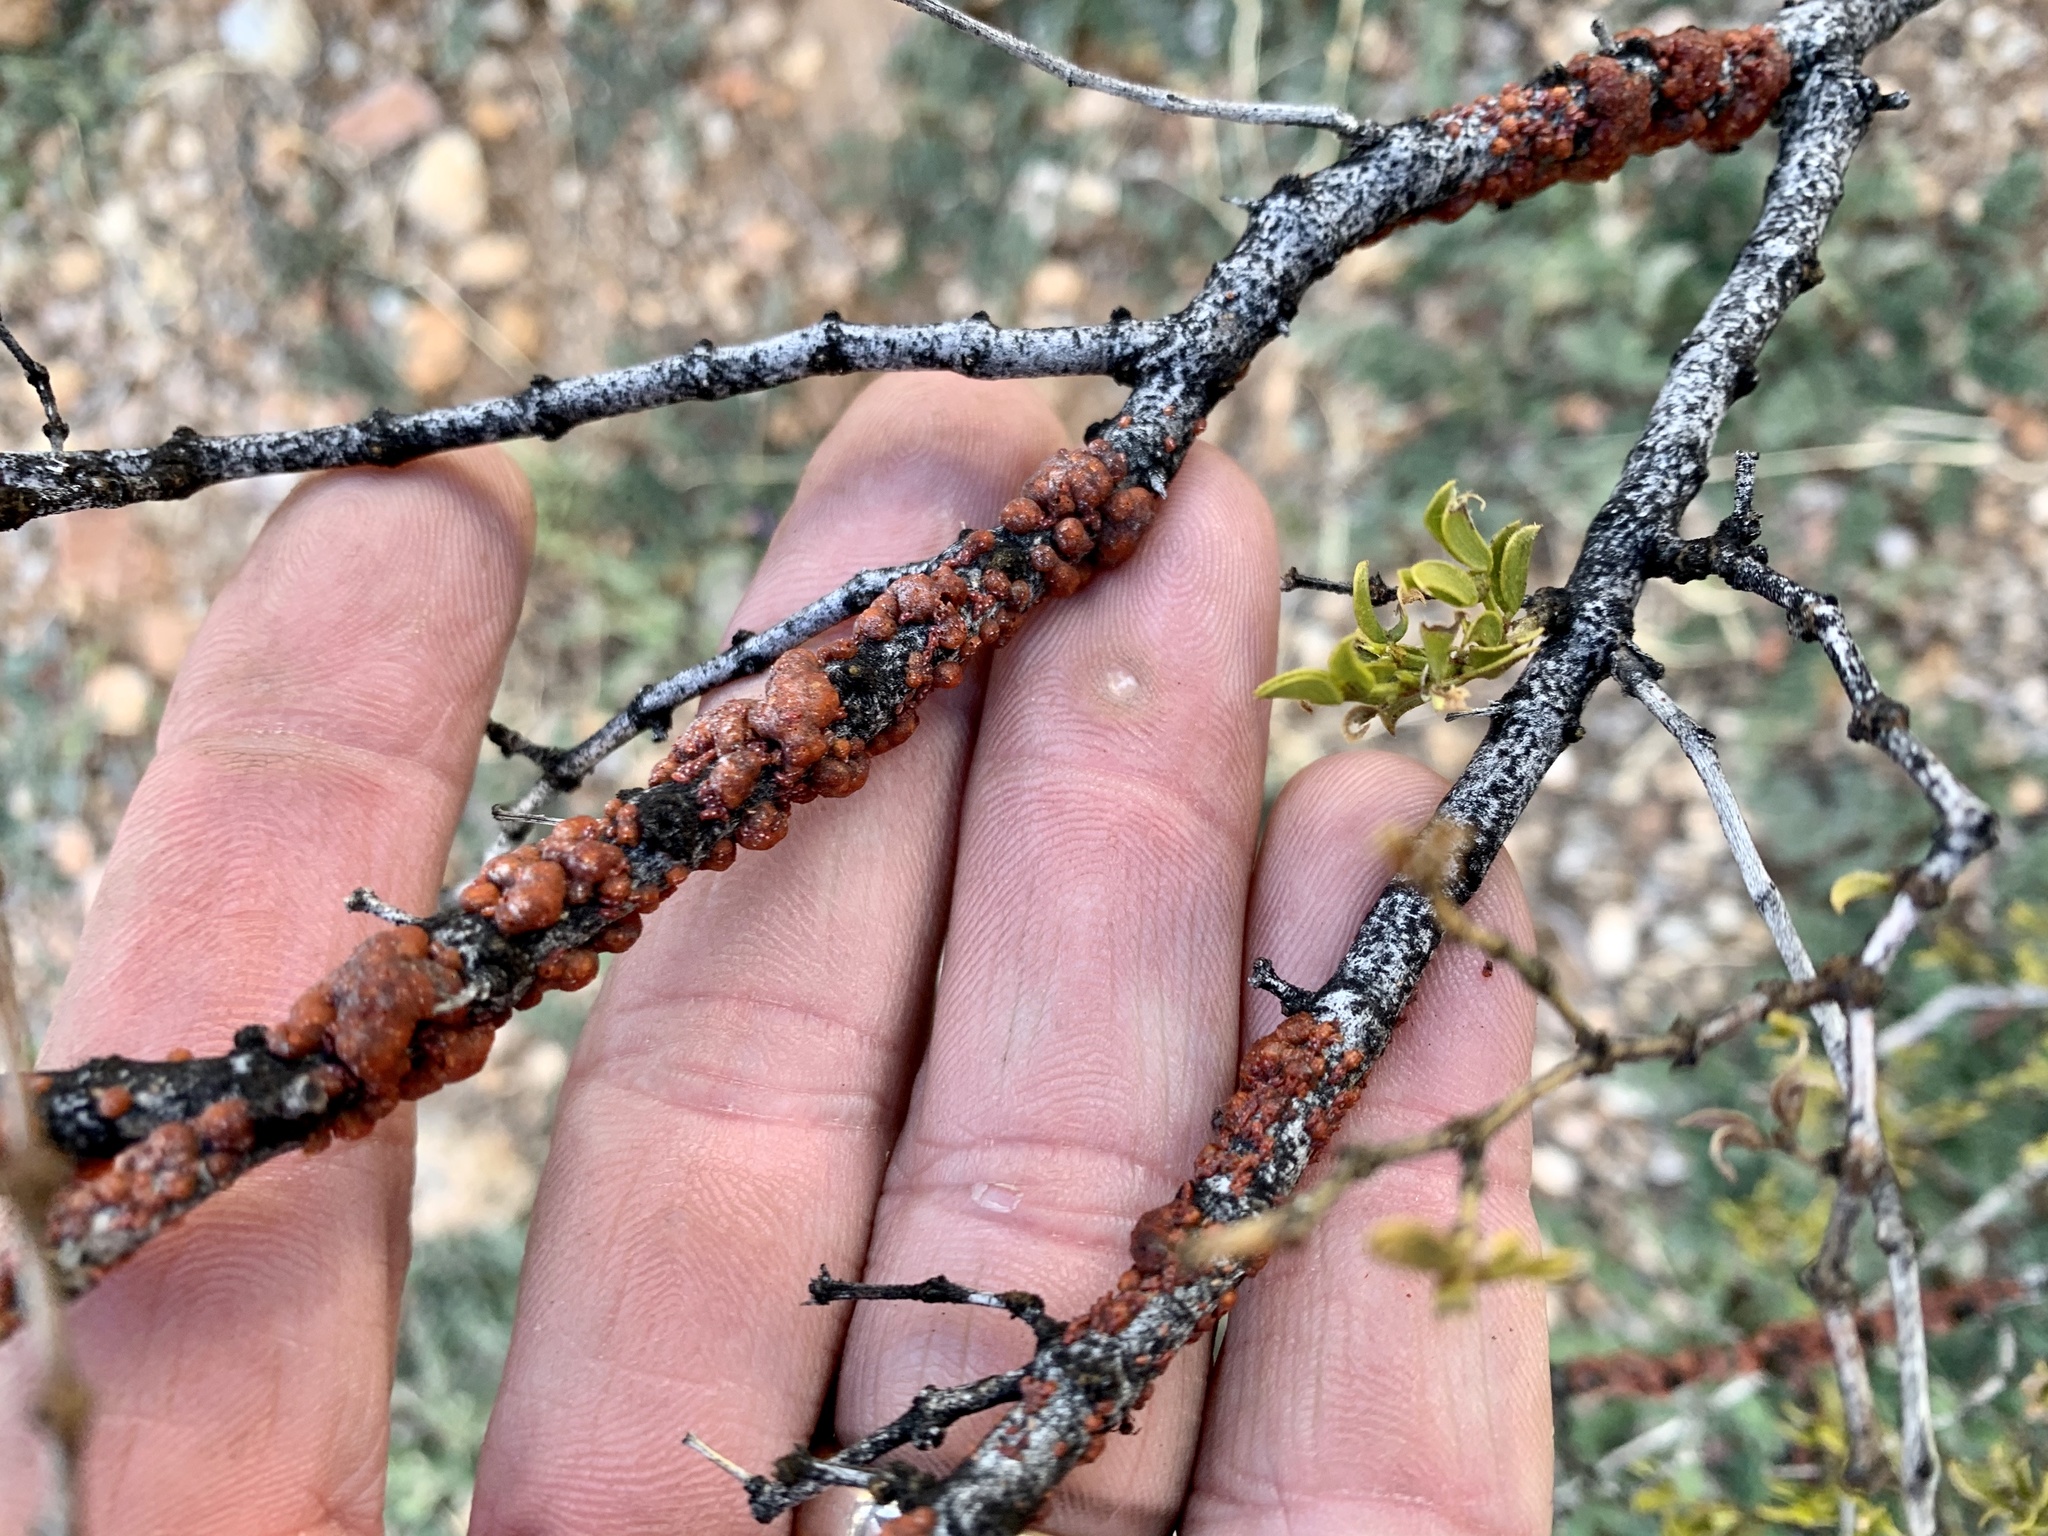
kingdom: Animalia
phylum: Arthropoda
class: Insecta
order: Hemiptera
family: Kerriidae
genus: Tachardiella
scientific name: Tachardiella larreae
